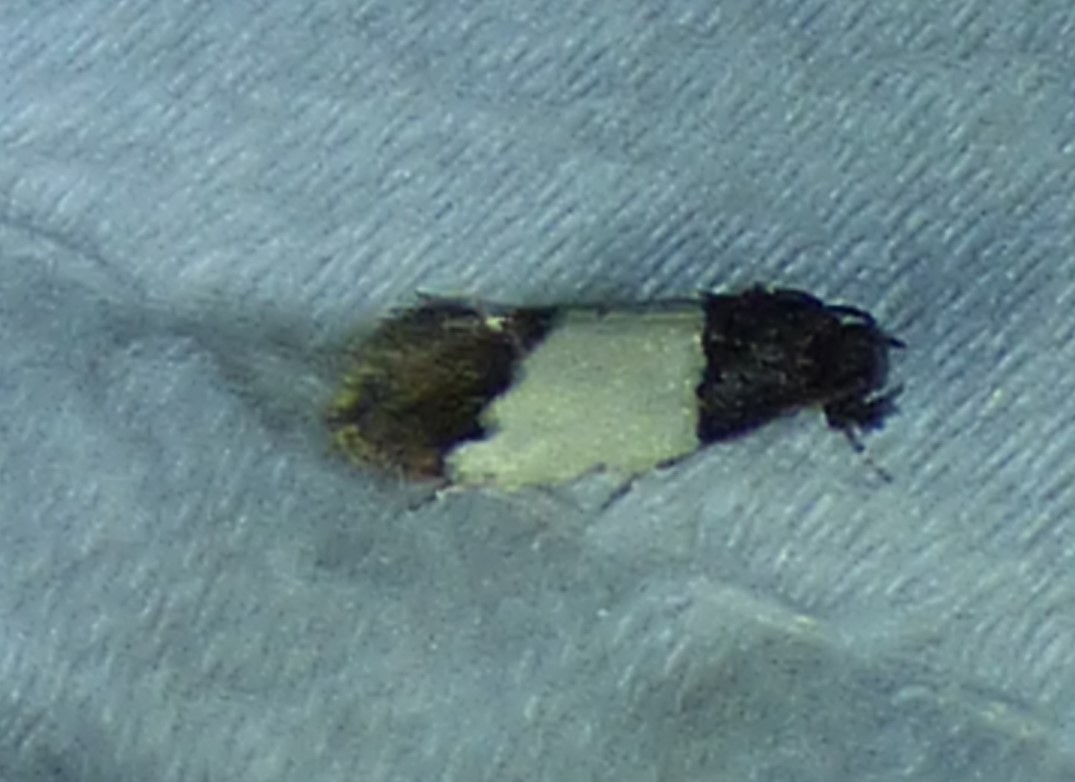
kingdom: Animalia
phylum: Arthropoda
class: Insecta
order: Lepidoptera
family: Psychidae
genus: Kearfottia
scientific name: Kearfottia albifasciella
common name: White-patched kearfottia
